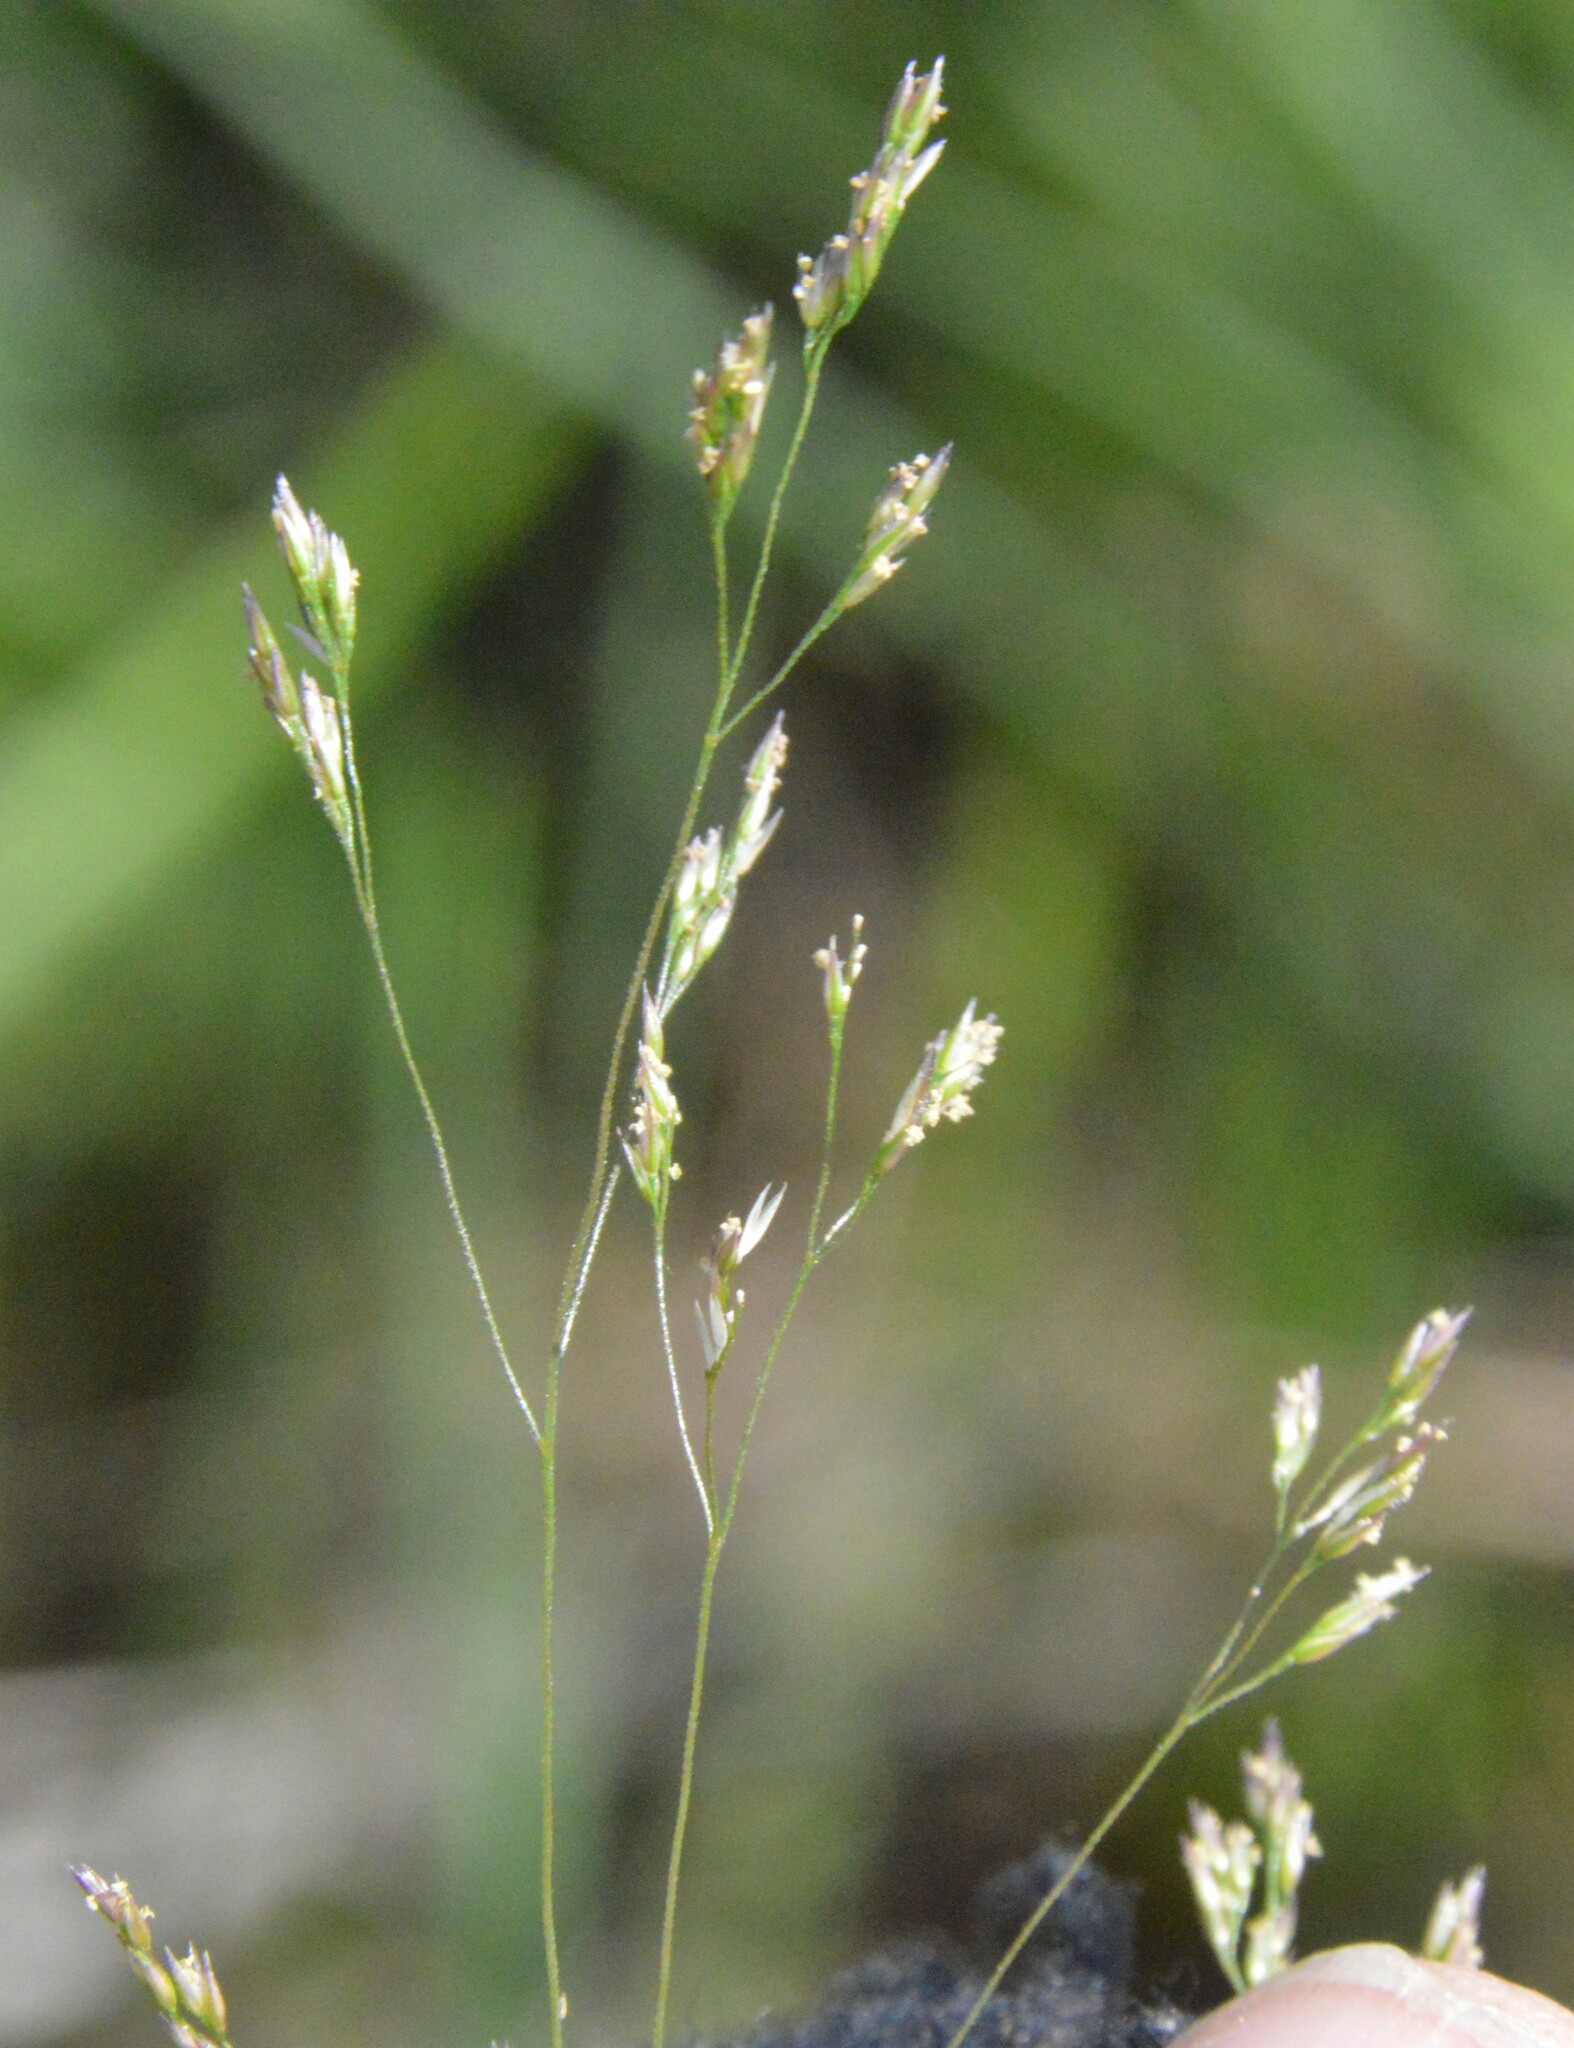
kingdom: Plantae
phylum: Tracheophyta
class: Liliopsida
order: Poales
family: Poaceae
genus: Agrostis
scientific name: Agrostis hyemalis
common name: Small bent
